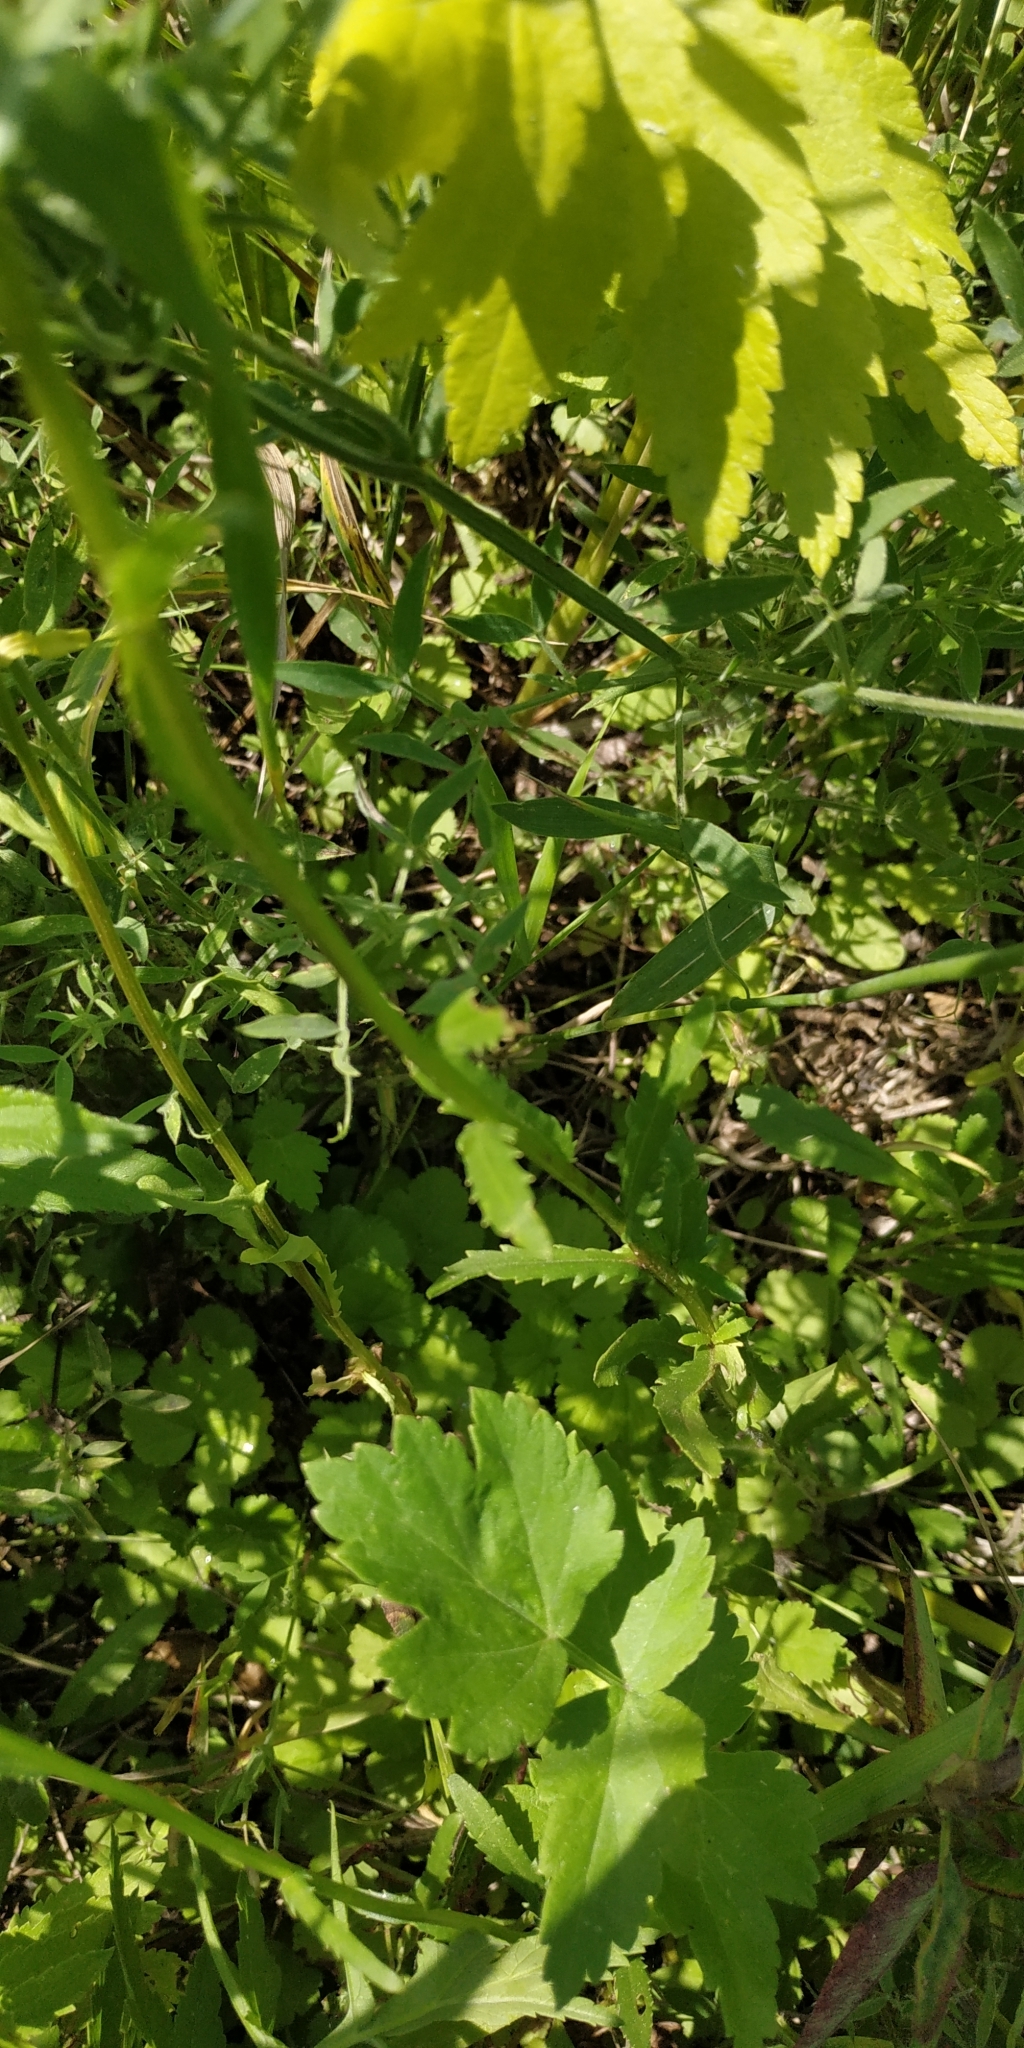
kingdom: Plantae
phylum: Tracheophyta
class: Magnoliopsida
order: Asterales
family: Asteraceae
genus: Leucanthemum
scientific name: Leucanthemum ircutianum
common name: Daisy
